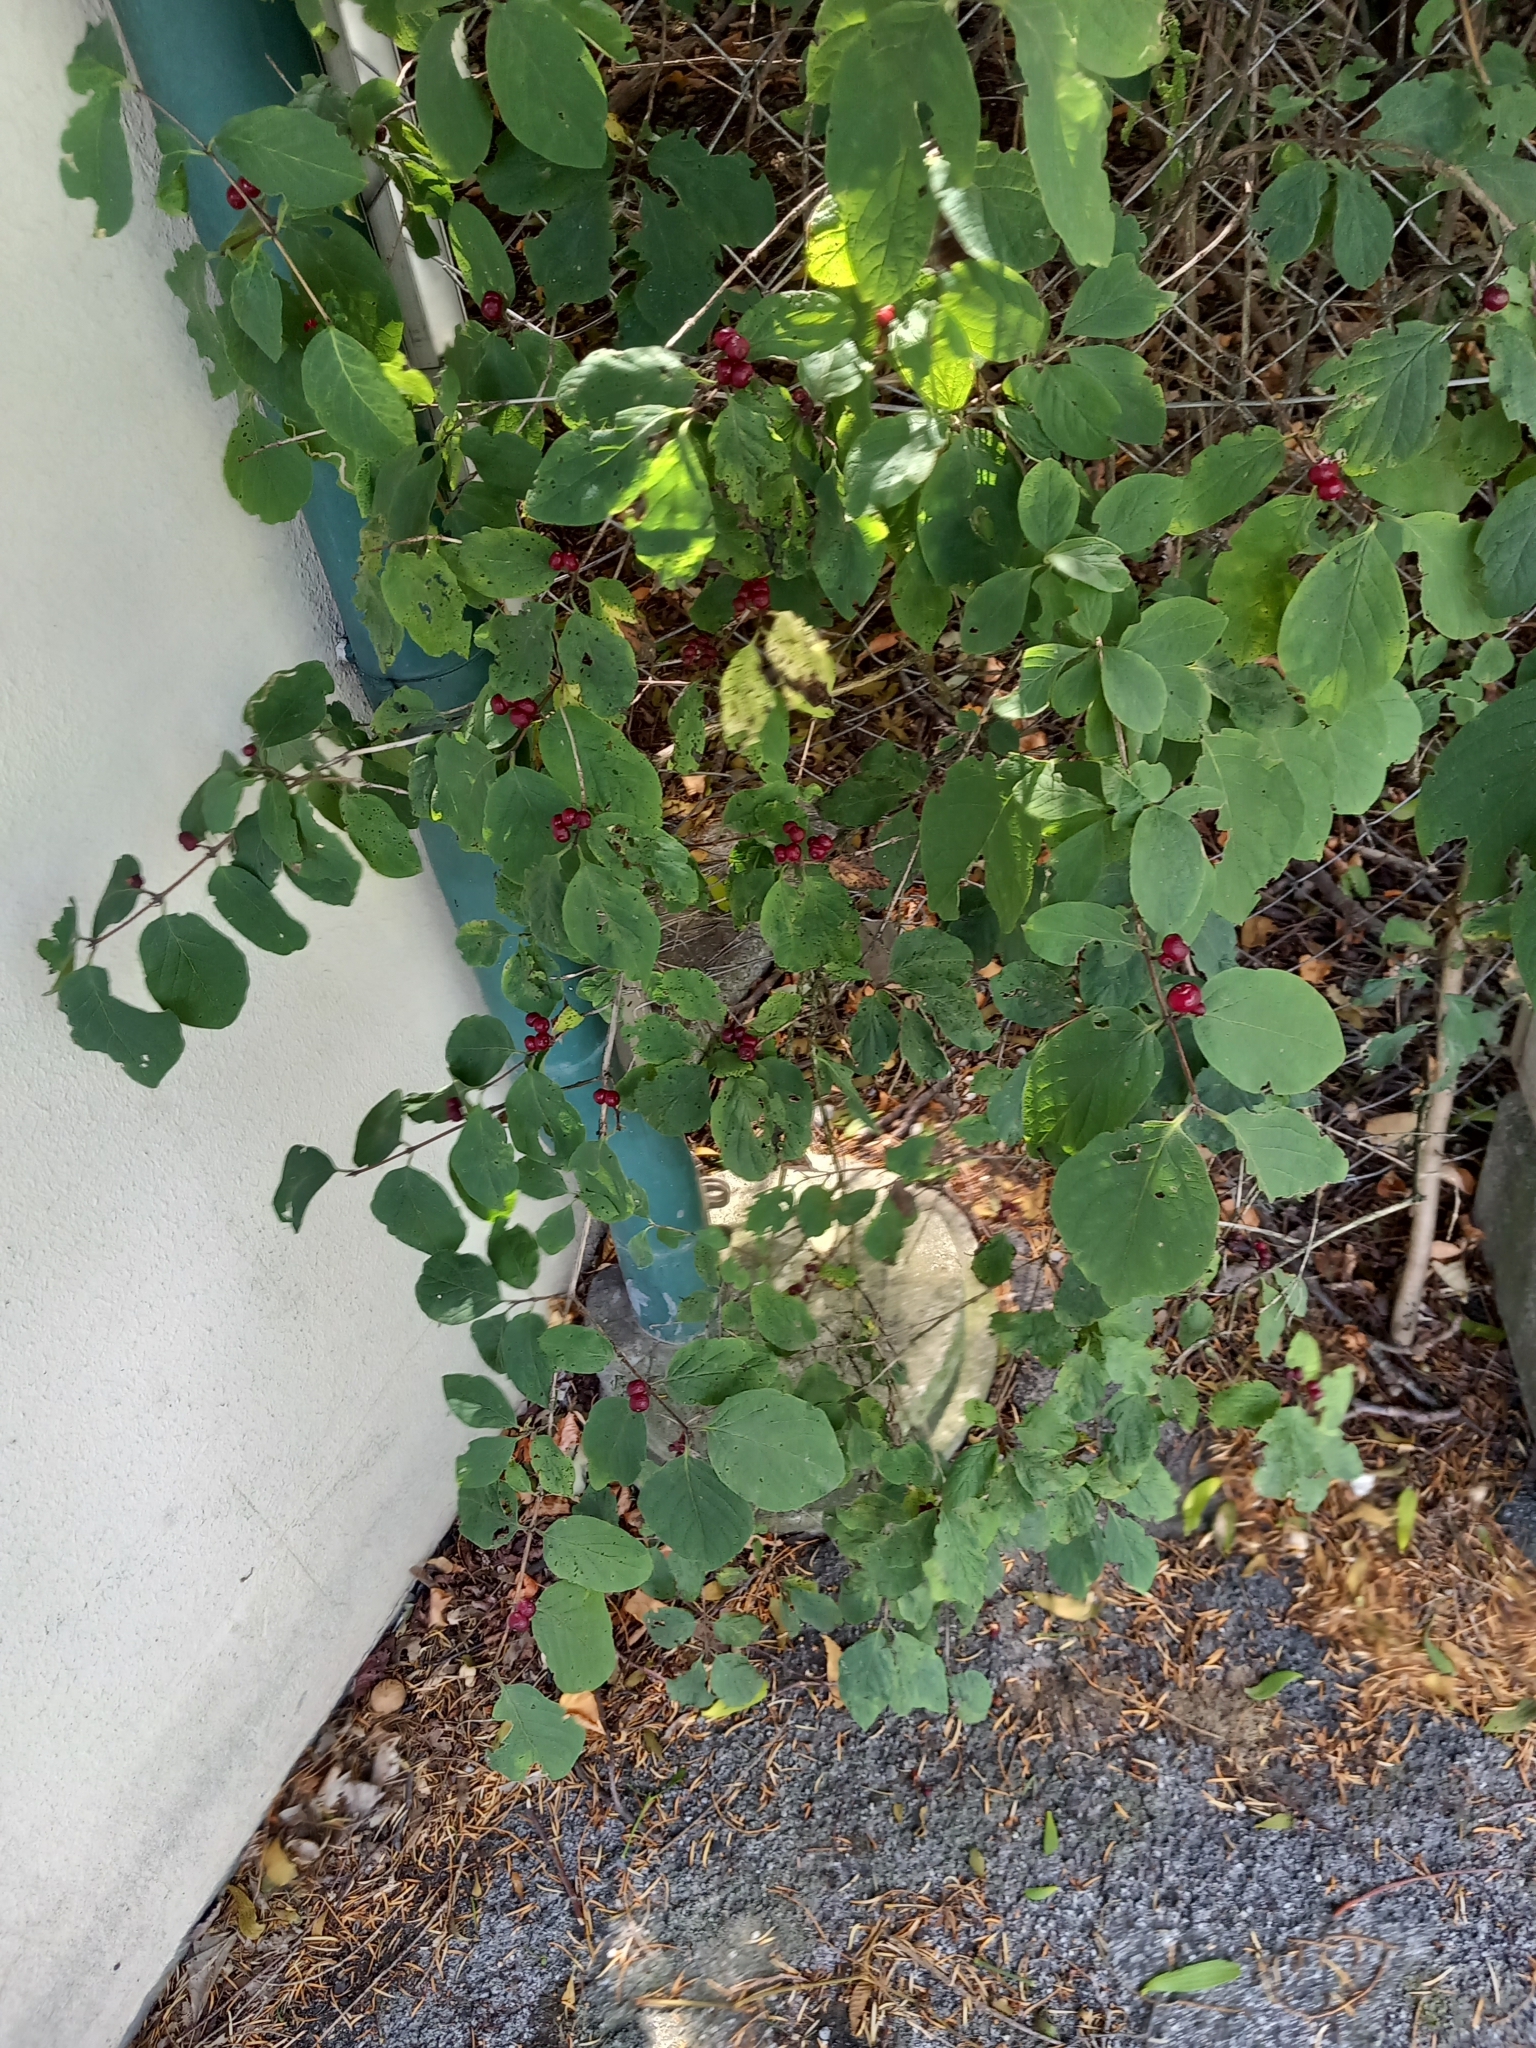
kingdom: Plantae
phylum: Tracheophyta
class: Magnoliopsida
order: Dipsacales
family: Caprifoliaceae
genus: Lonicera
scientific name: Lonicera xylosteum
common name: Fly honeysuckle
